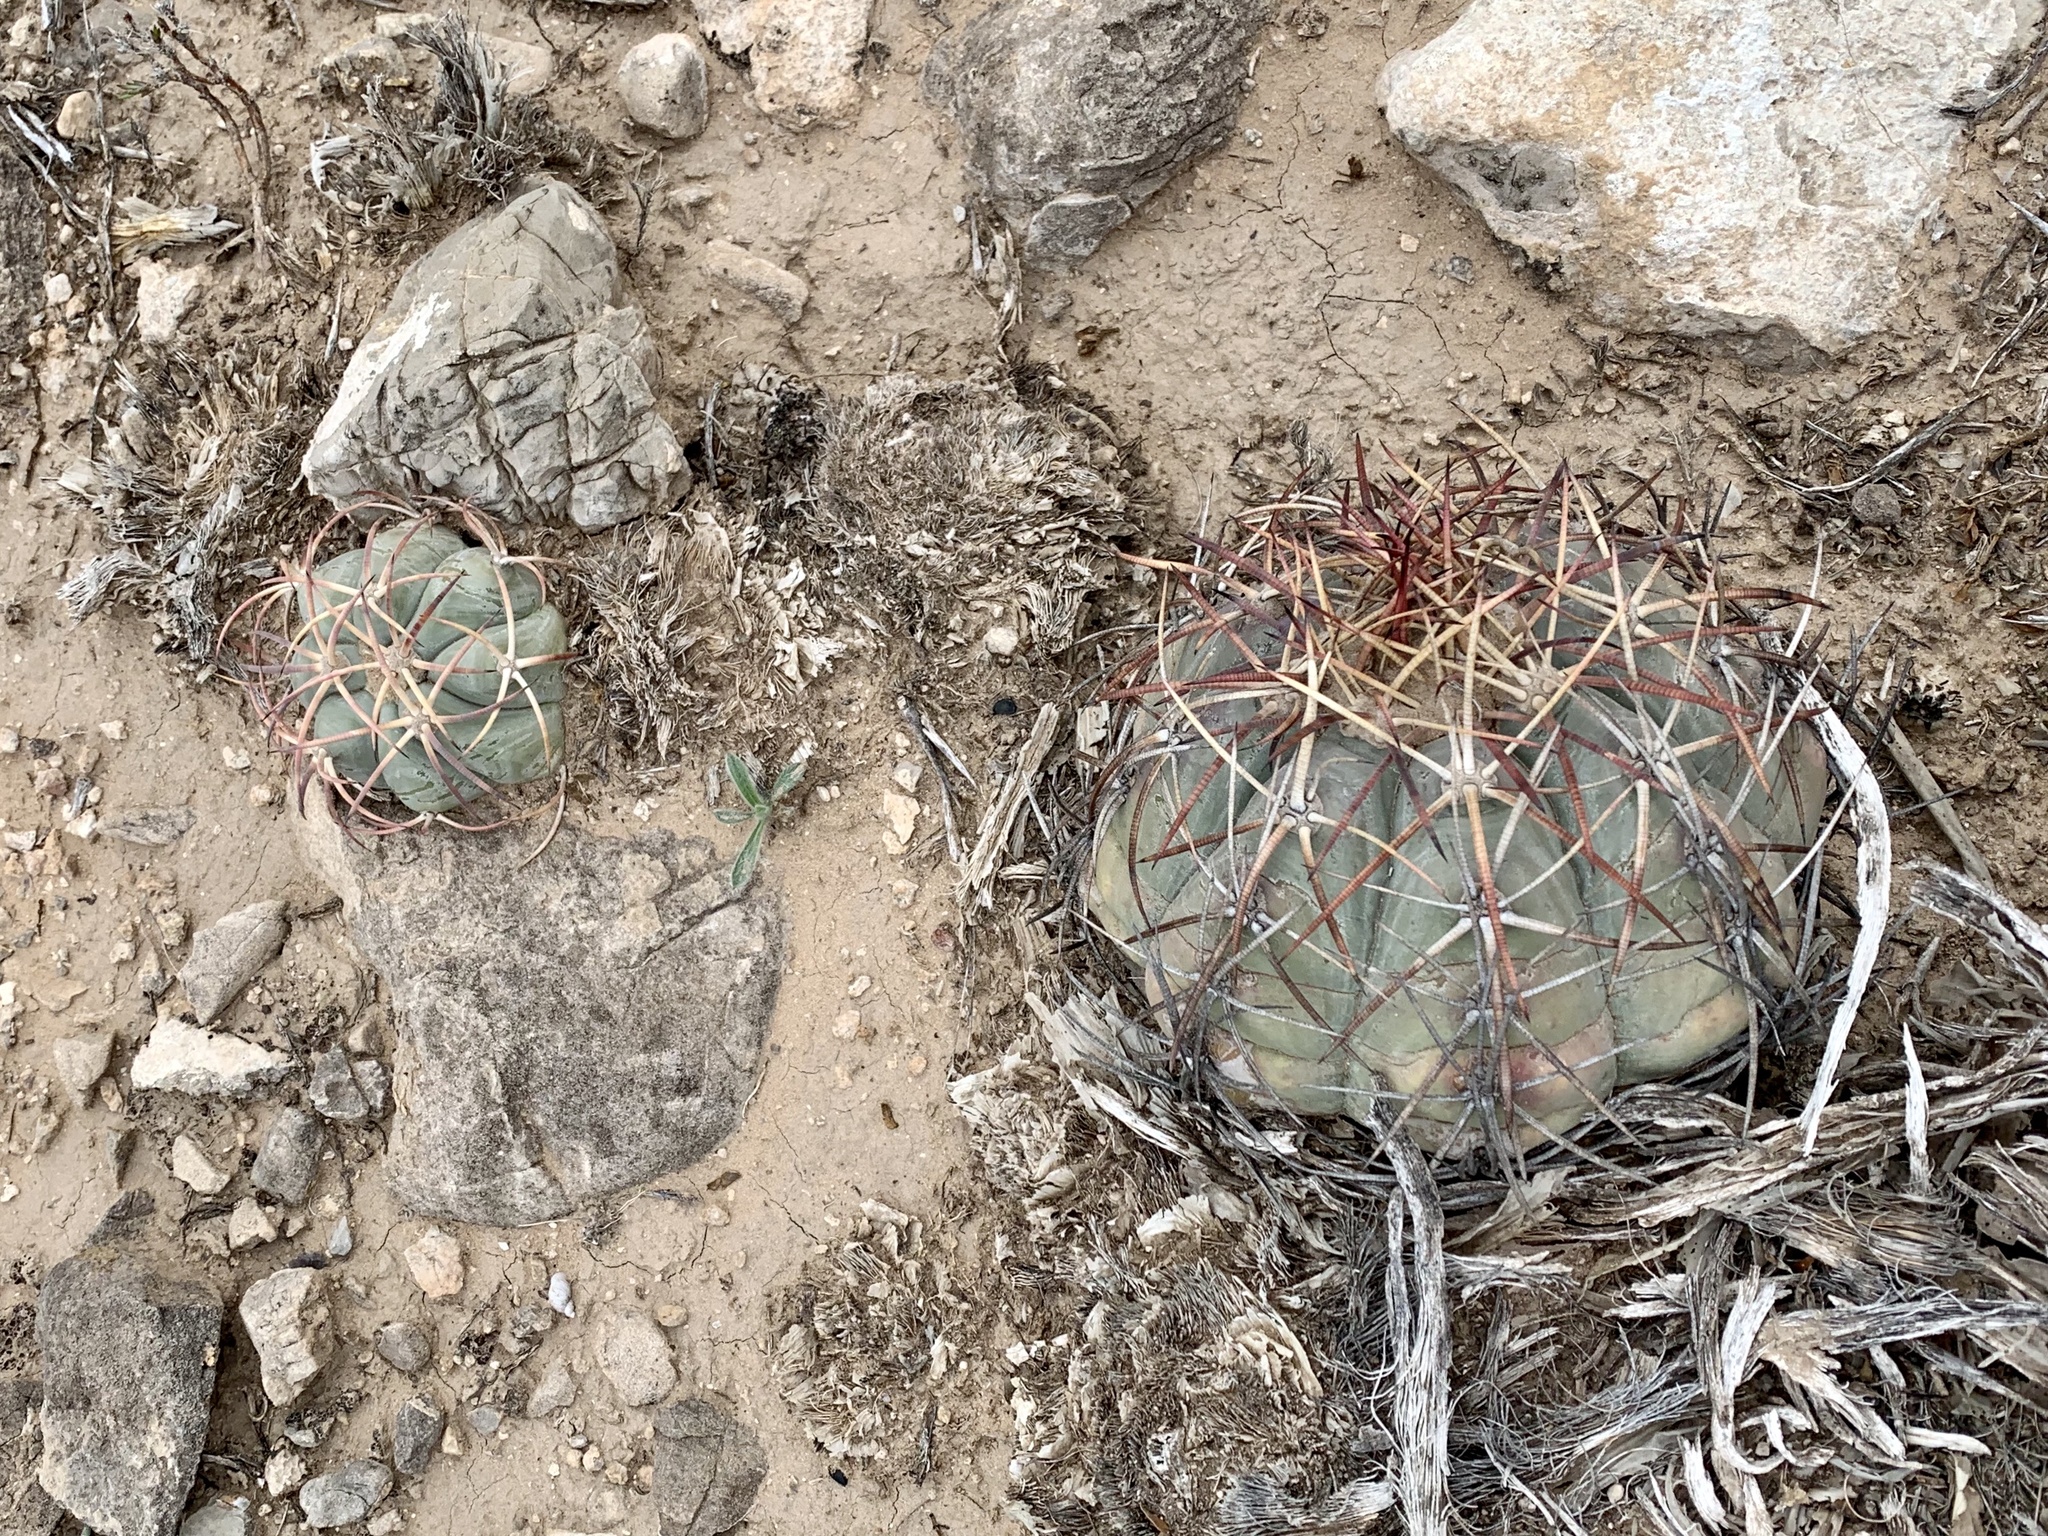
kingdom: Plantae
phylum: Tracheophyta
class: Magnoliopsida
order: Caryophyllales
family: Cactaceae
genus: Echinocactus
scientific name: Echinocactus horizonthalonius
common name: Devilshead
